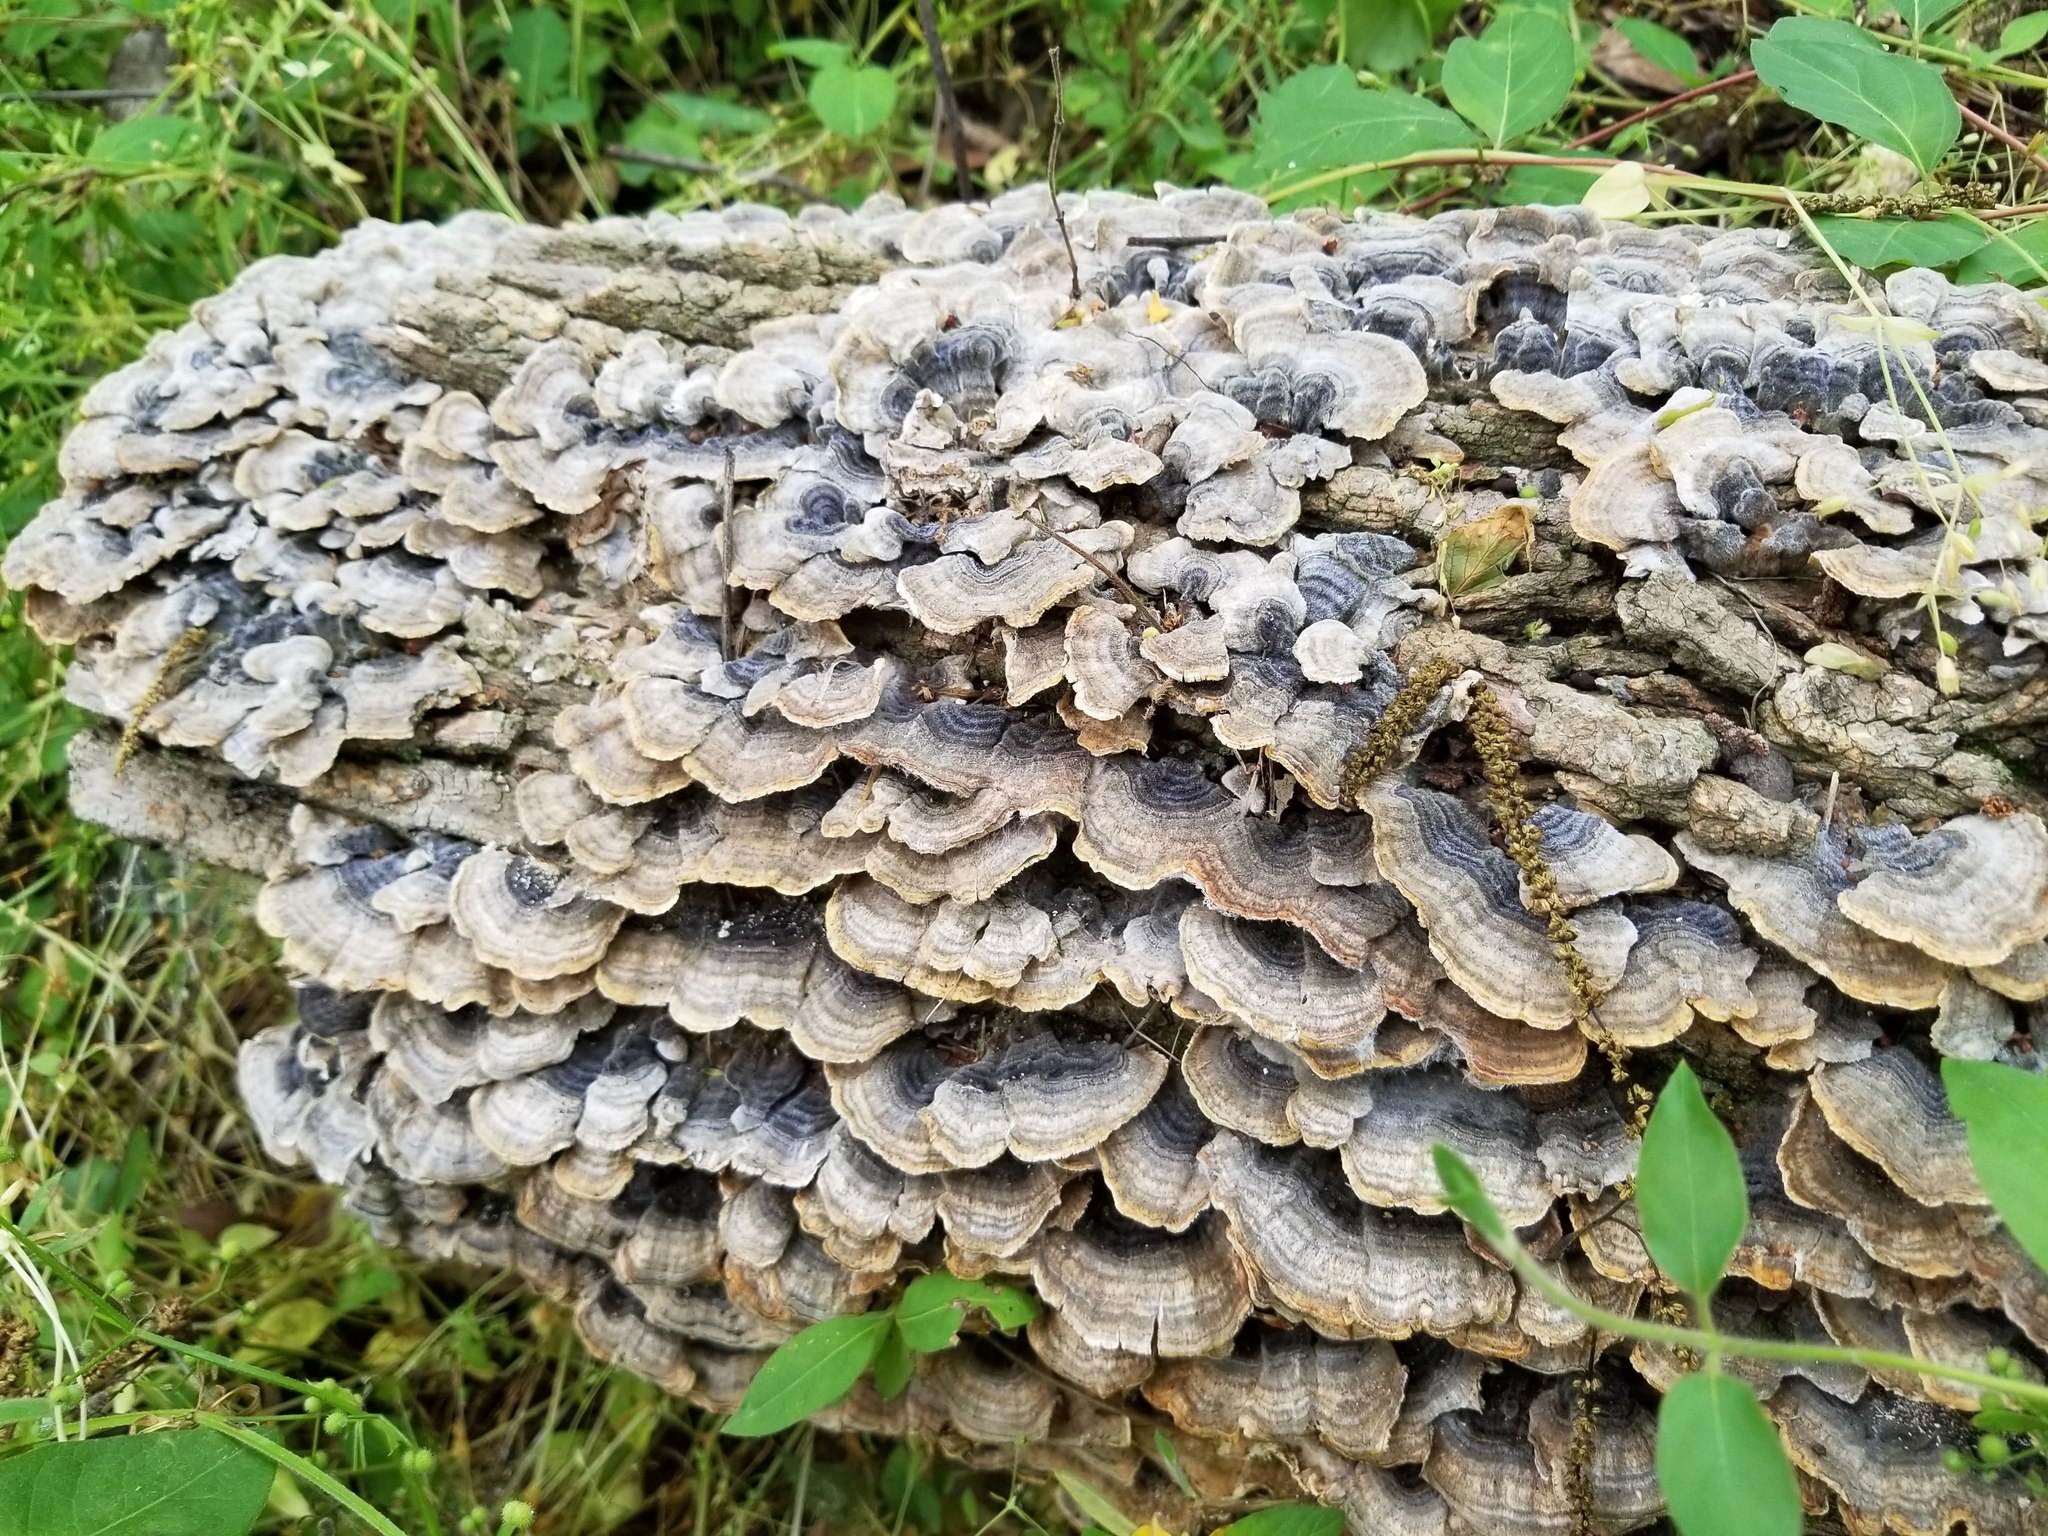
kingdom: Fungi
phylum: Basidiomycota
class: Agaricomycetes
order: Polyporales
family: Polyporaceae
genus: Trametes
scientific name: Trametes versicolor
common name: Turkeytail
